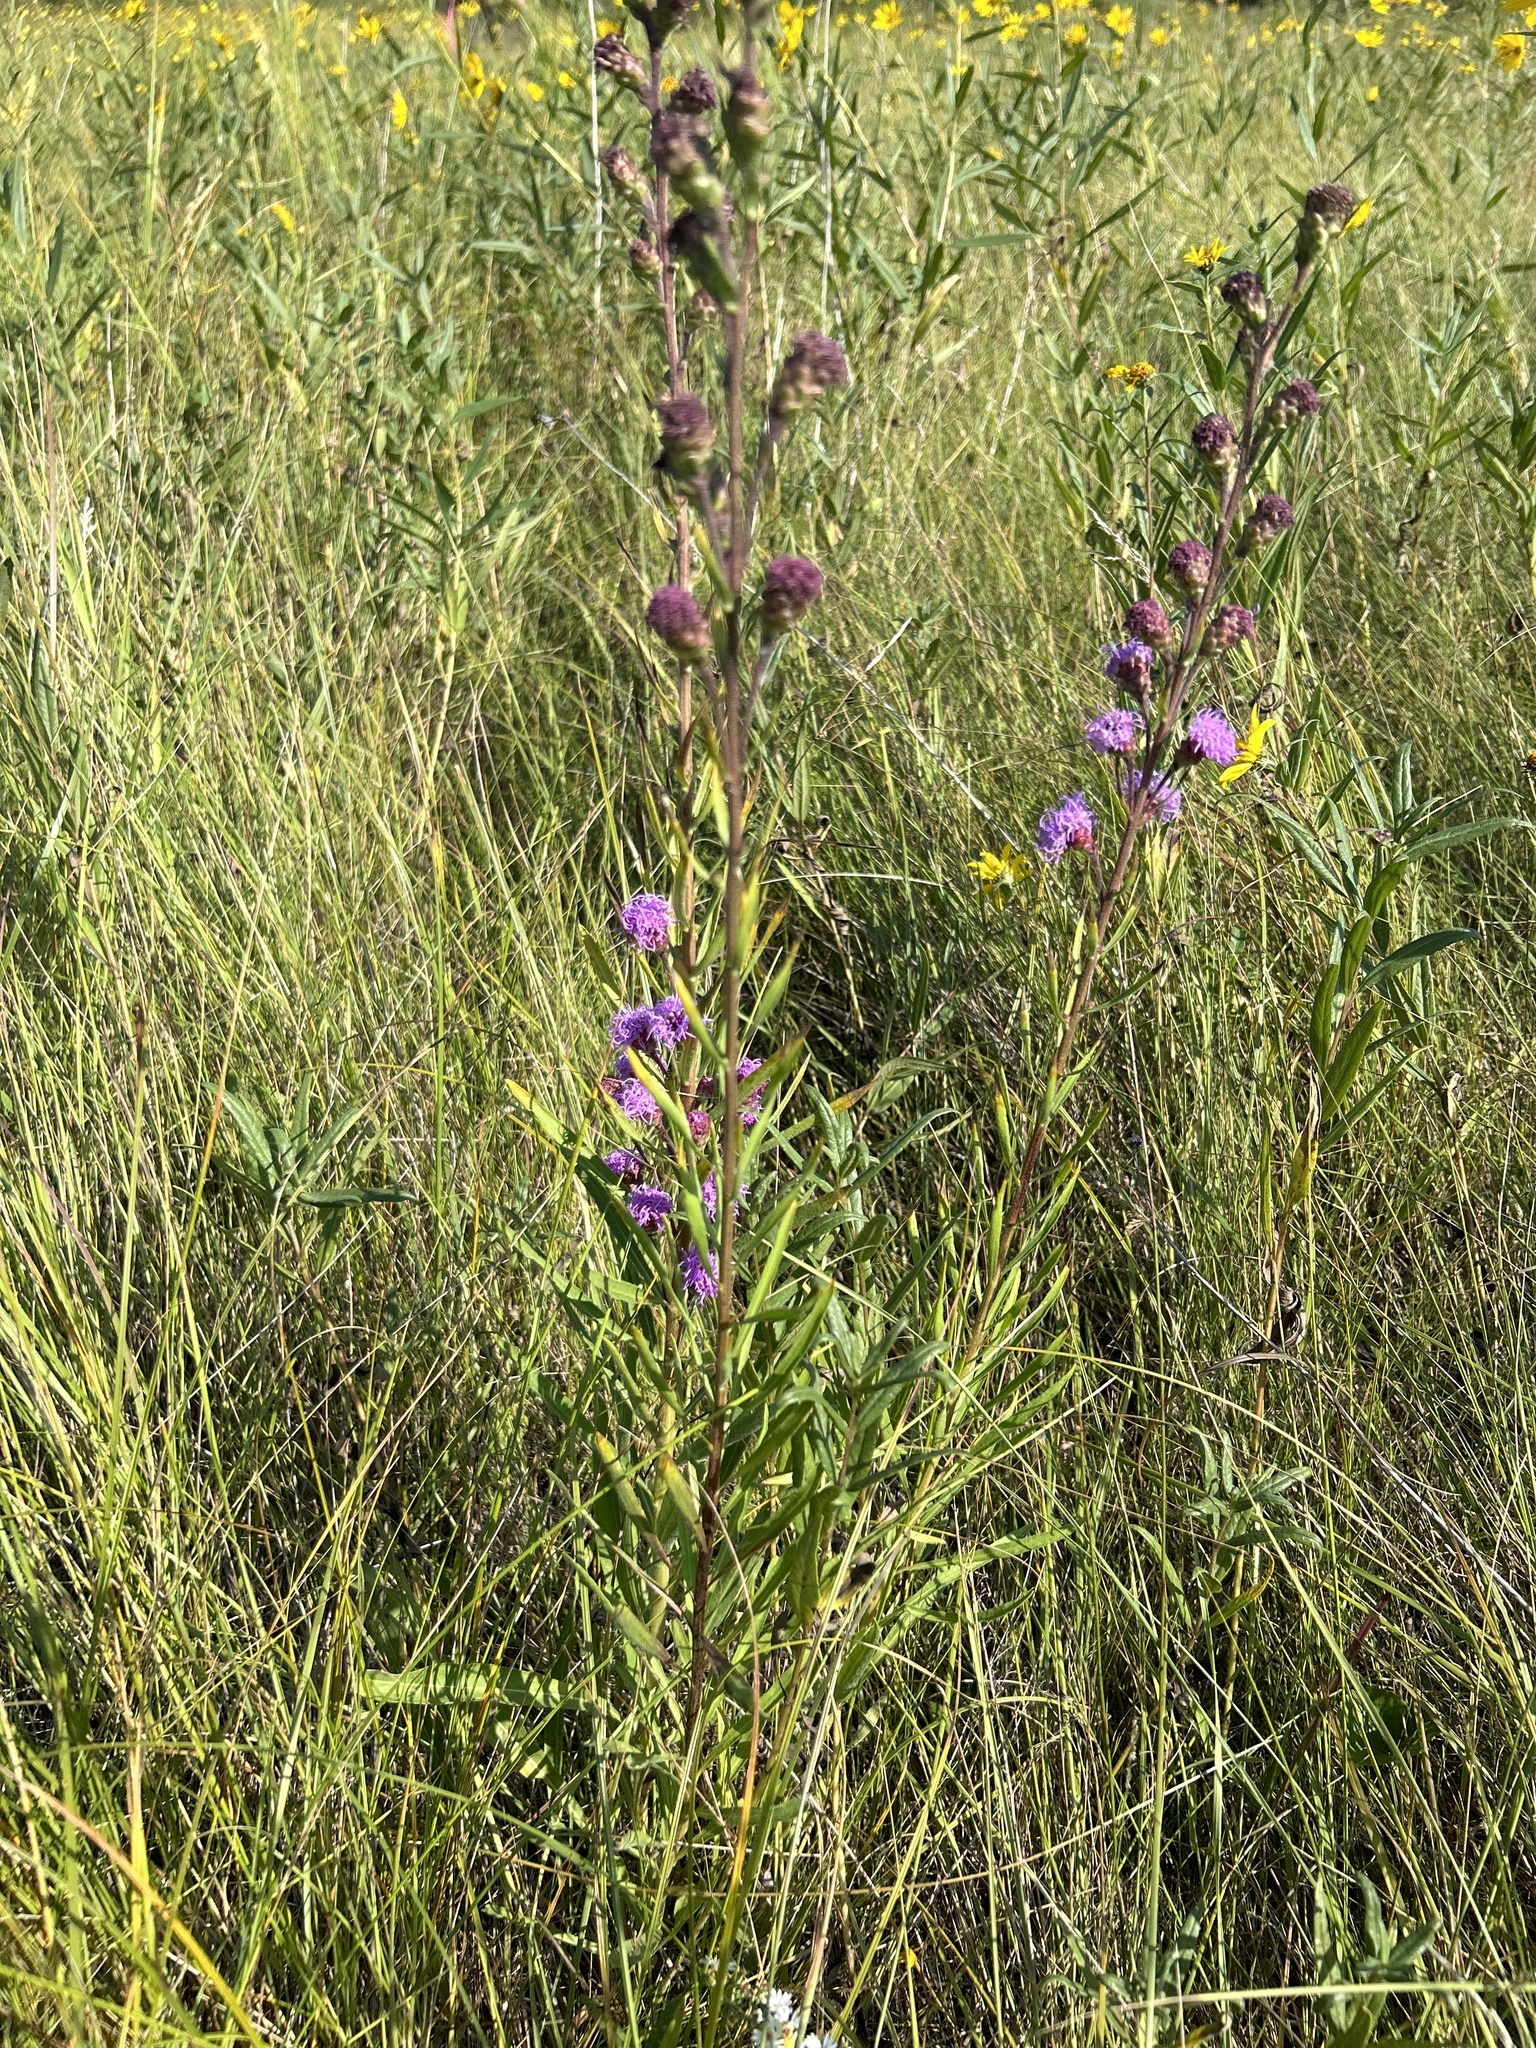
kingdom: Plantae
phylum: Tracheophyta
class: Magnoliopsida
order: Asterales
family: Asteraceae
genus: Liatris
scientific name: Liatris ligulistylis
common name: Northern plains gayfeather
